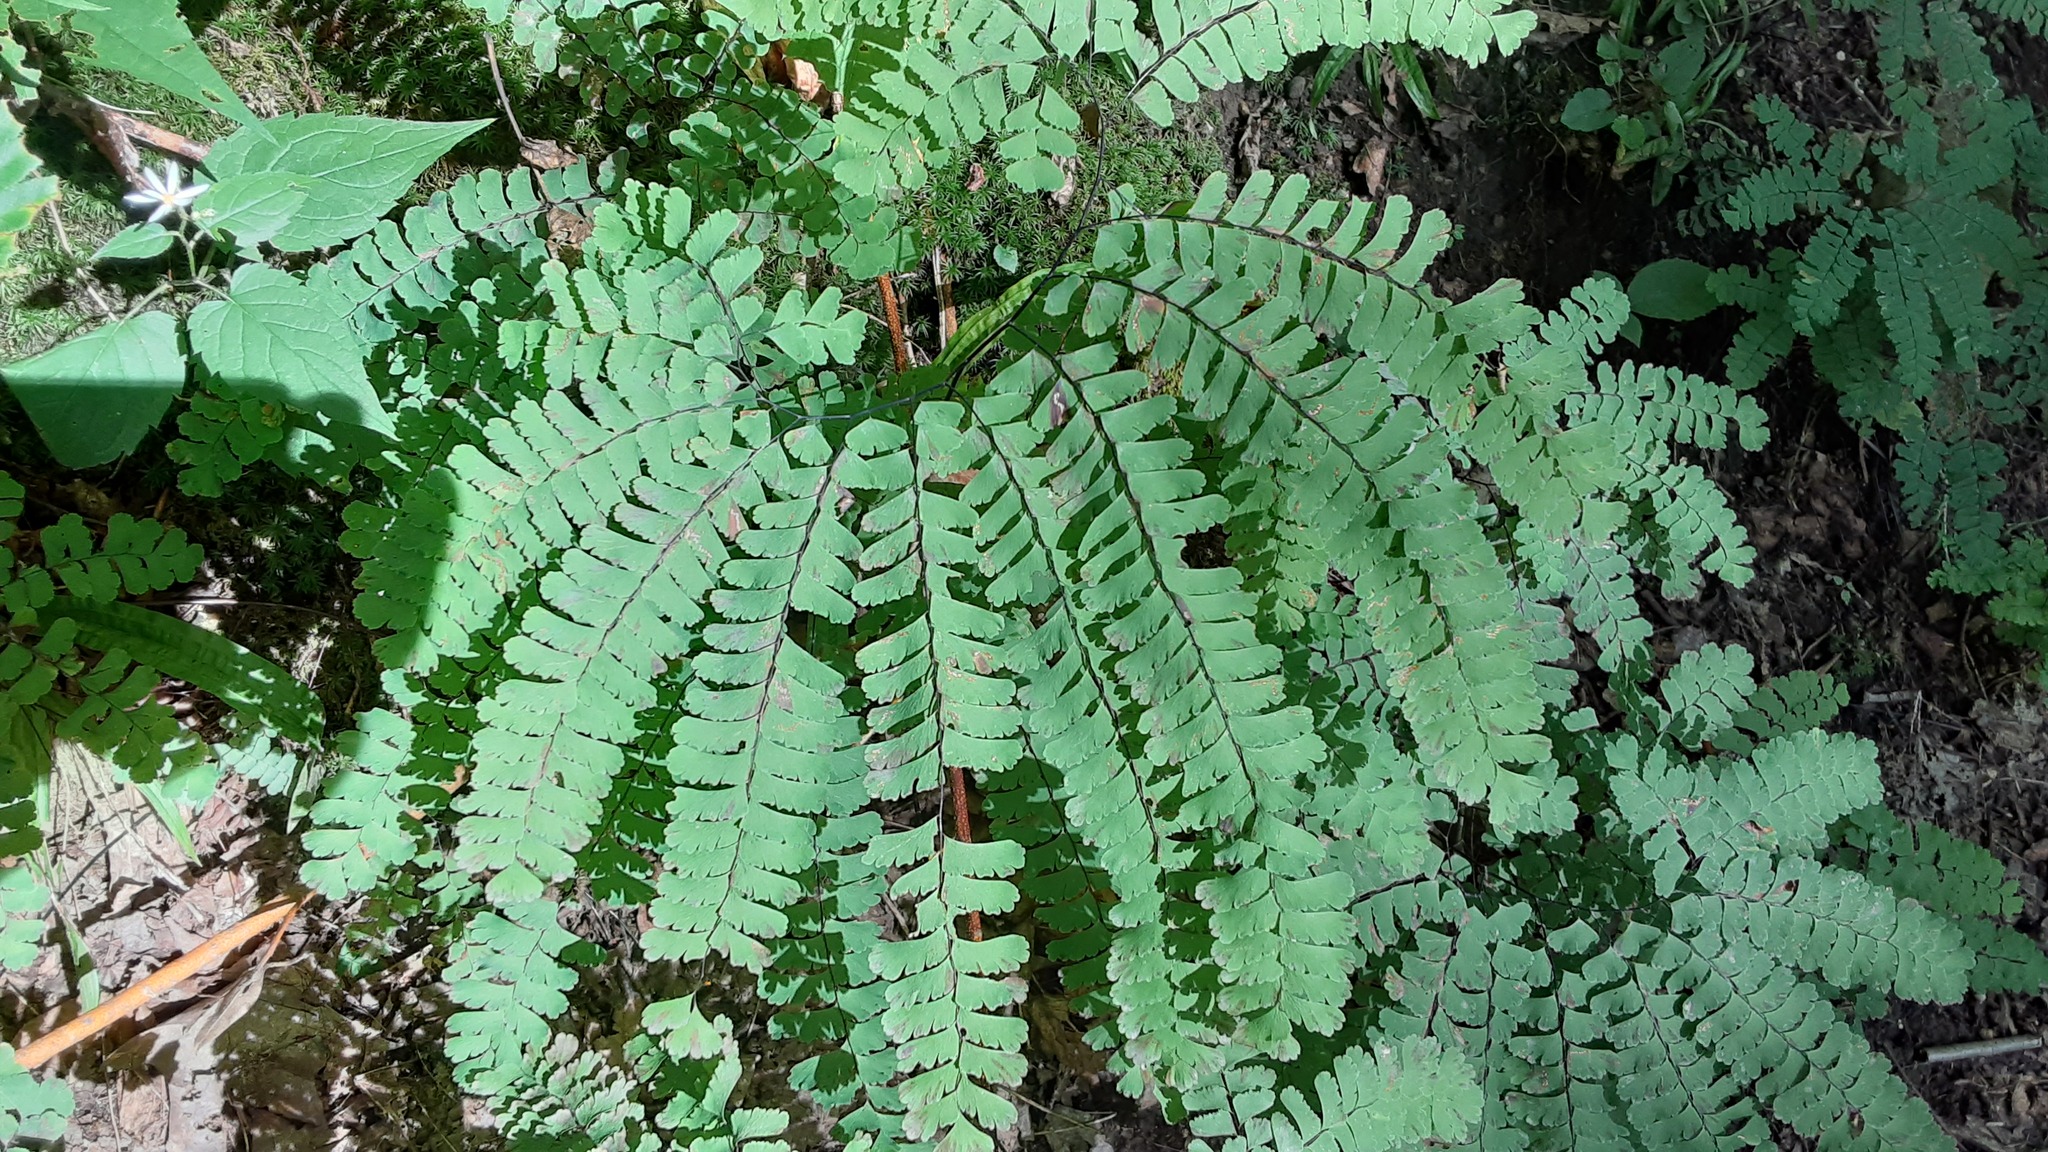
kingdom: Plantae
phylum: Tracheophyta
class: Polypodiopsida
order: Polypodiales
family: Pteridaceae
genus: Adiantum
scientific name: Adiantum pedatum
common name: Five-finger fern
